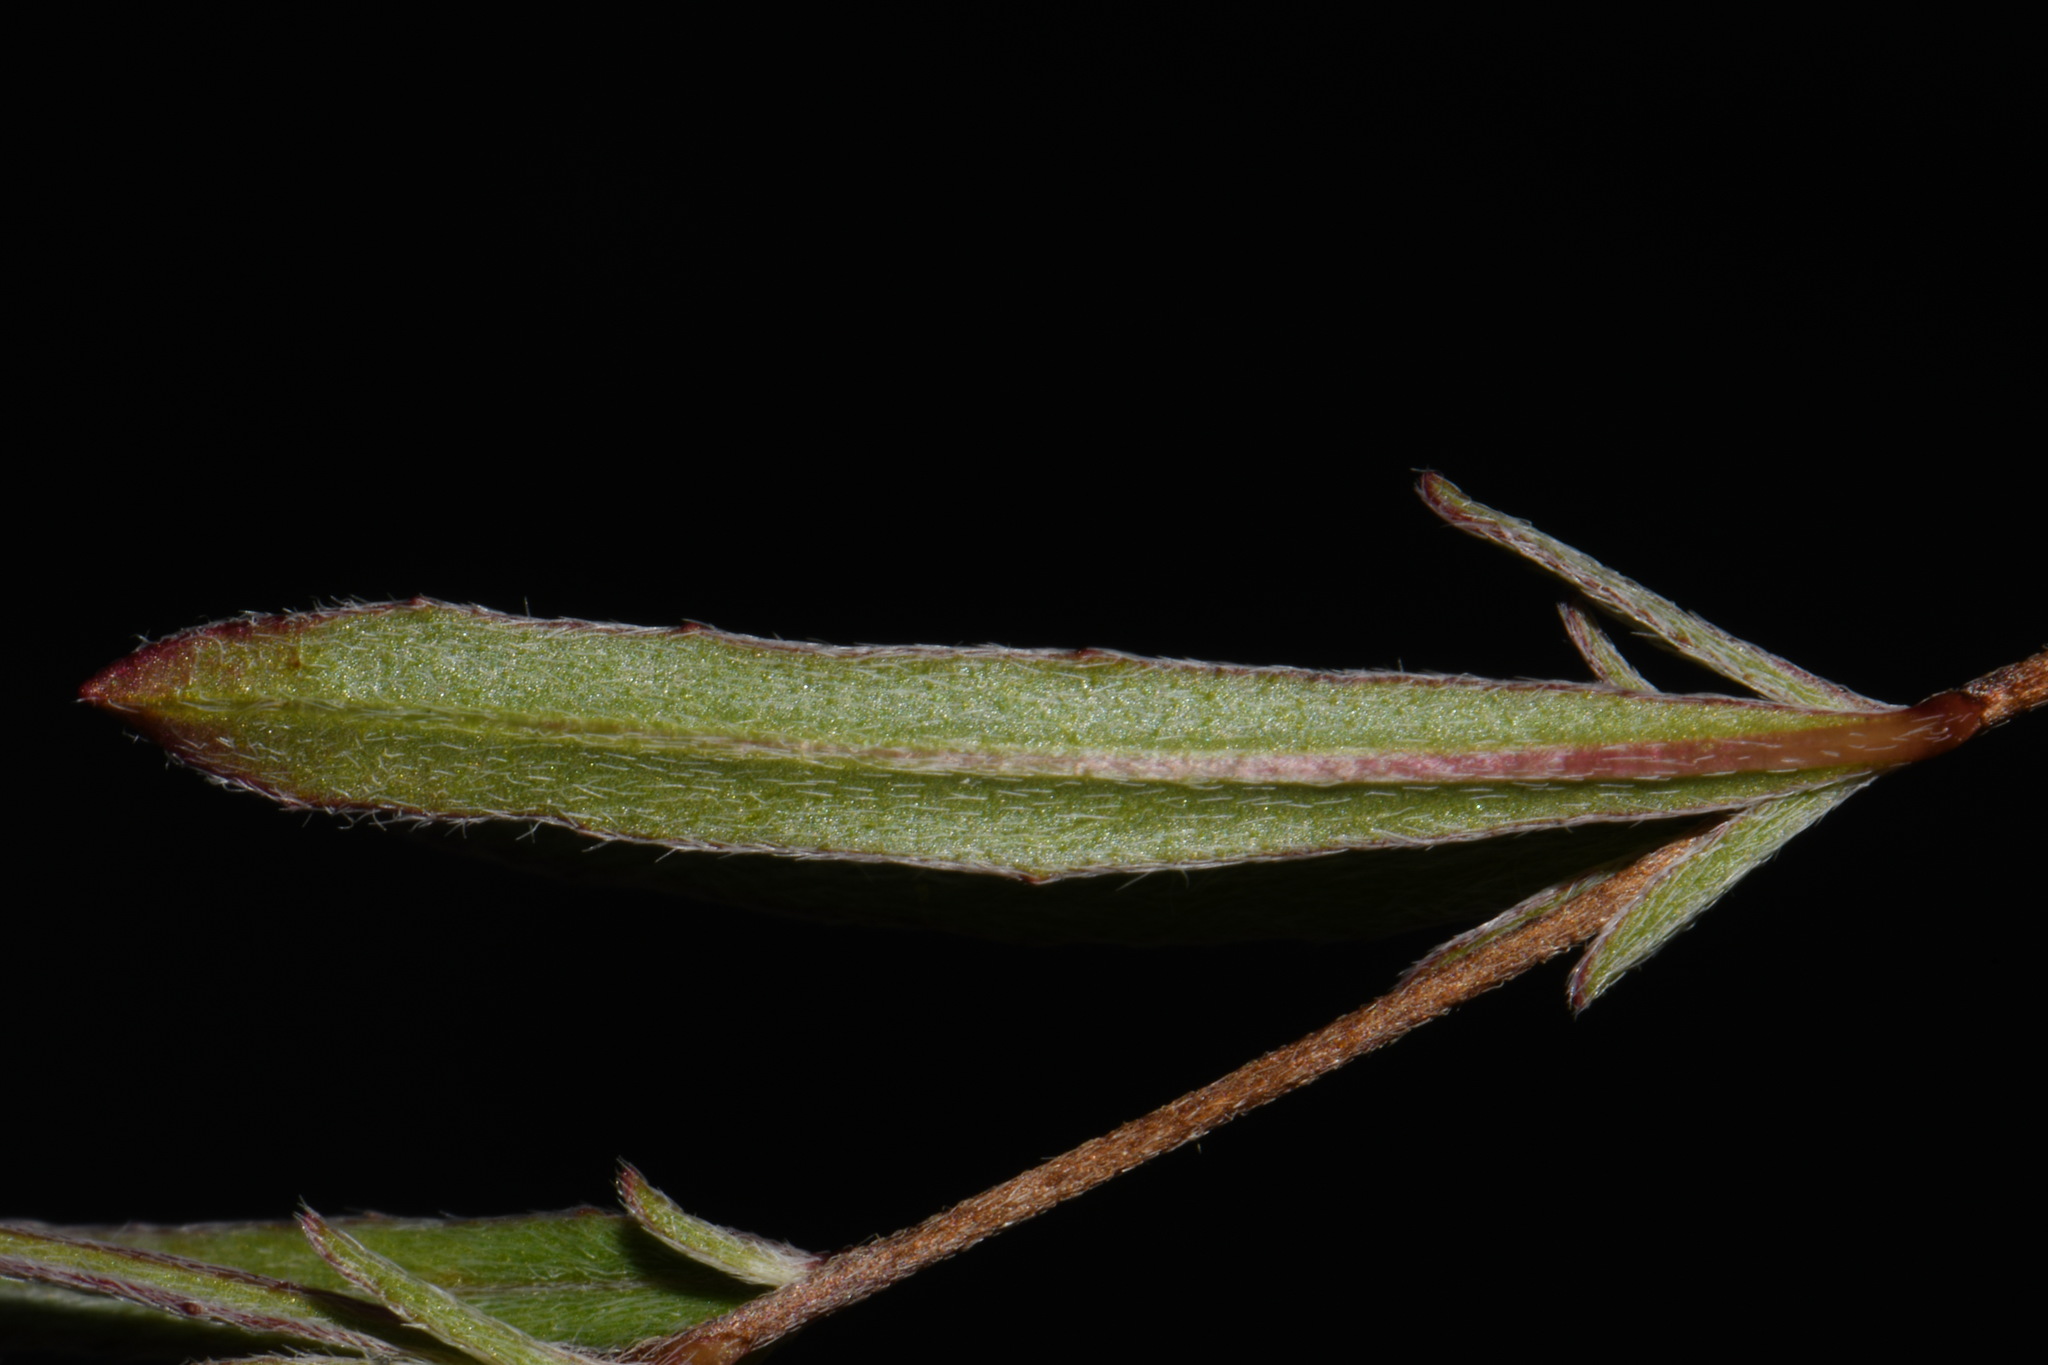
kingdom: Plantae
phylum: Tracheophyta
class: Magnoliopsida
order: Myrtales
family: Onagraceae
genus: Oenothera
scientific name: Oenothera fruticosa
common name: Southern sundrops
